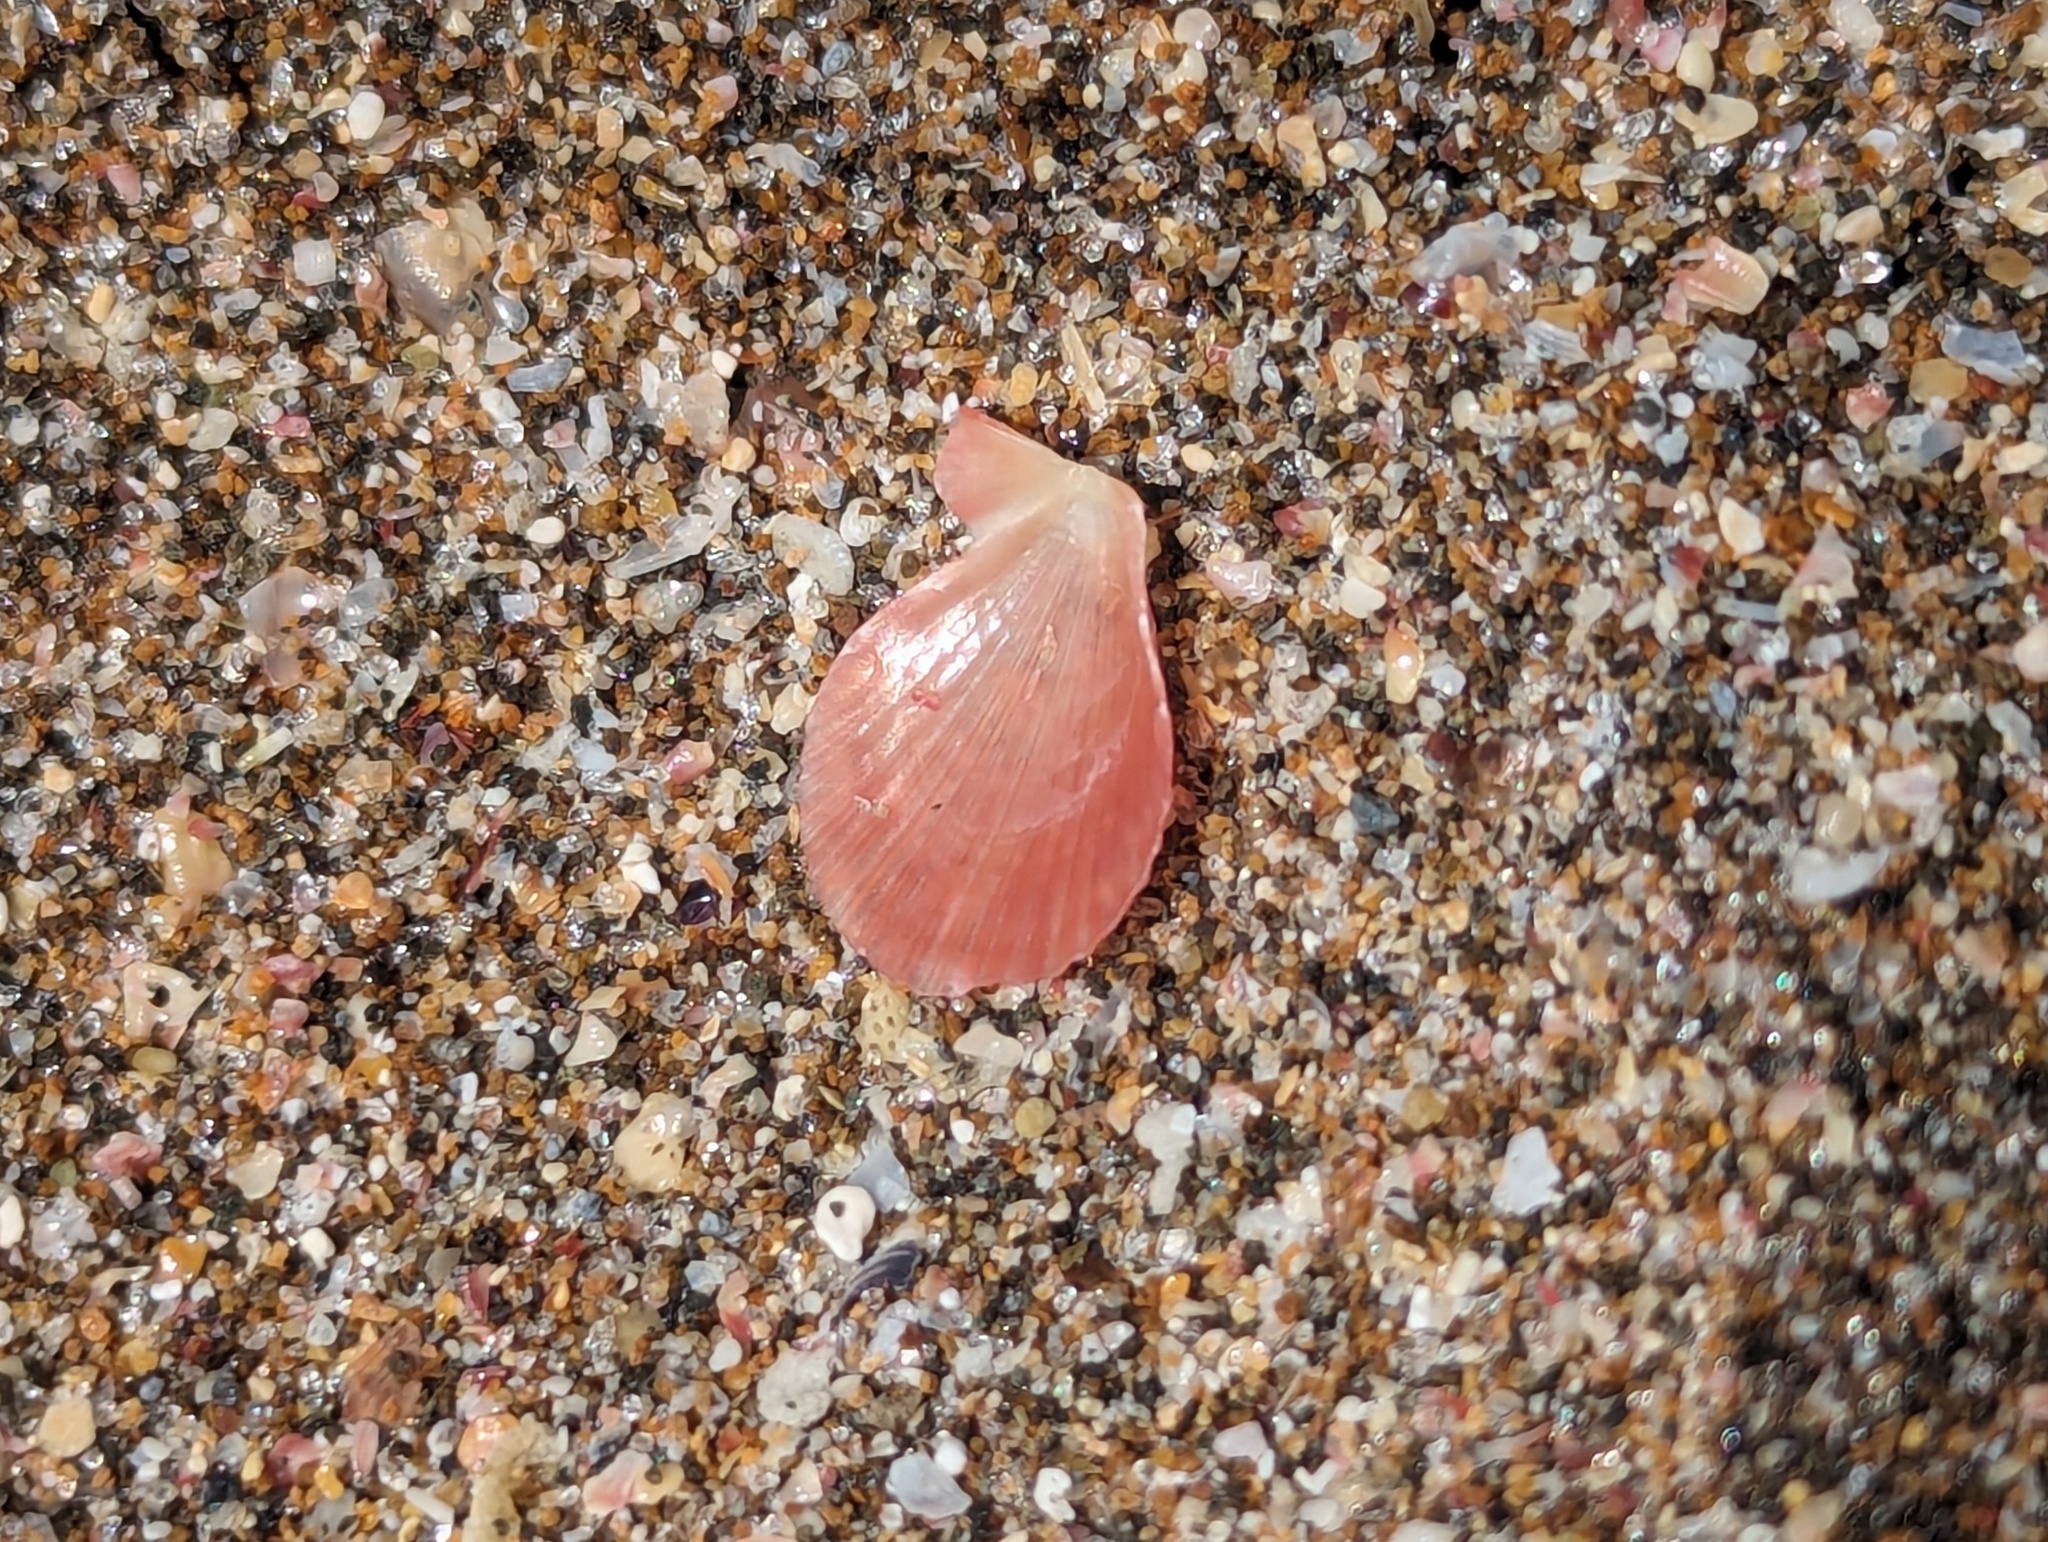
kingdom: Animalia
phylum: Mollusca
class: Bivalvia
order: Pectinida
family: Pectinidae
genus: Talochlamys
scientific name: Talochlamys zelandiae
